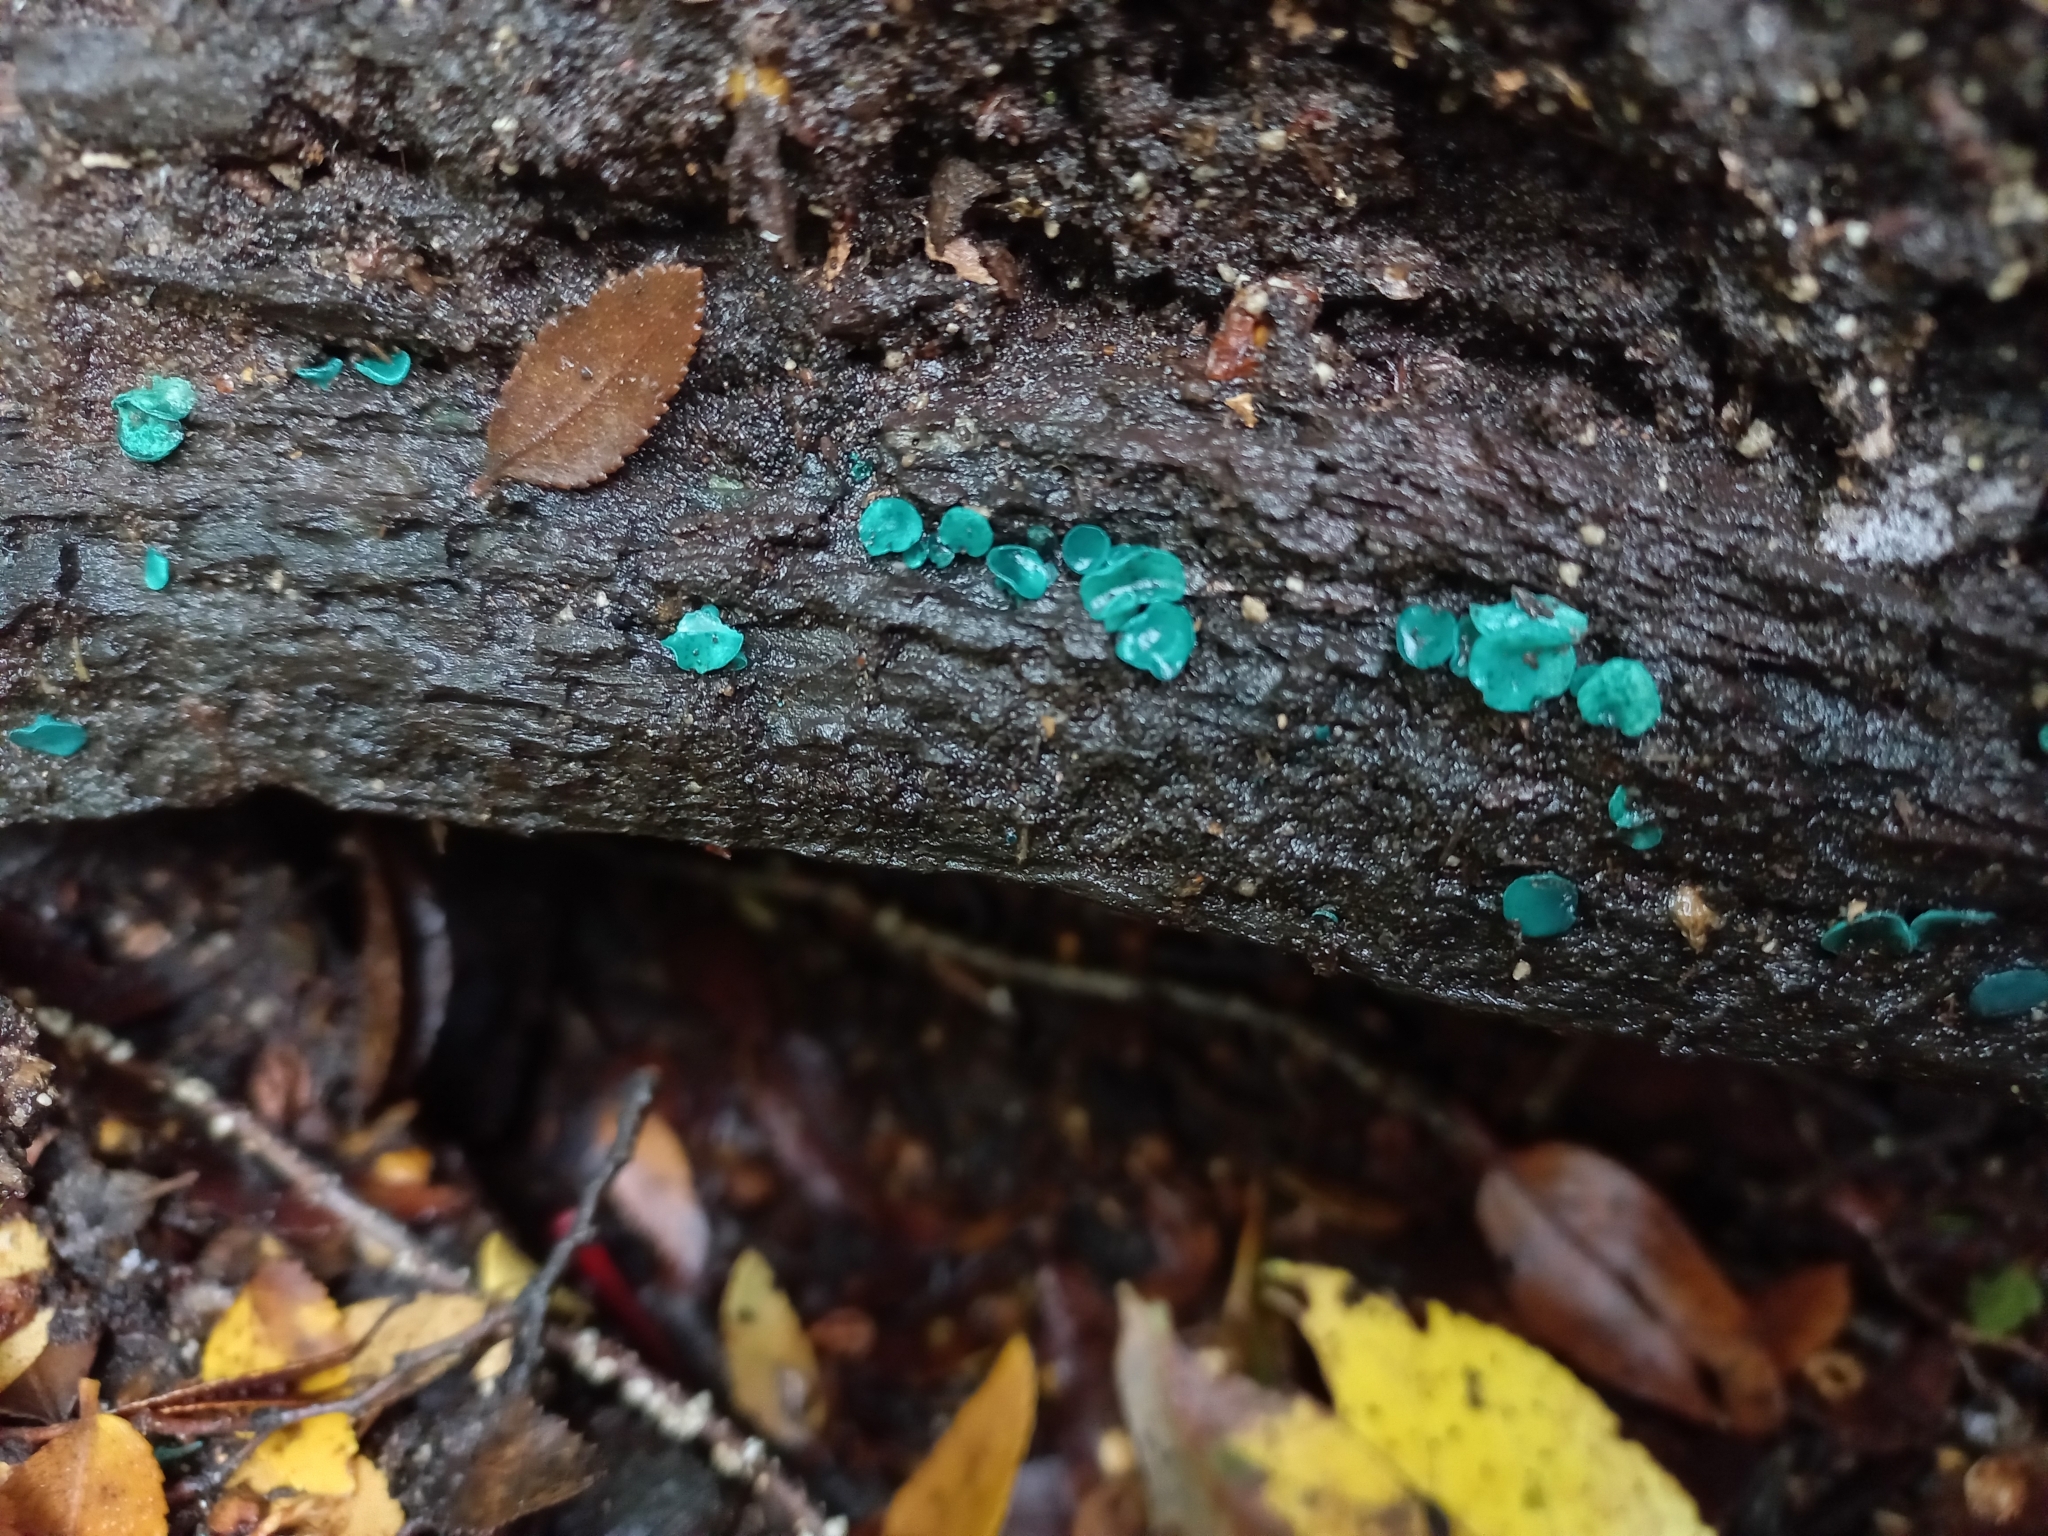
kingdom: Fungi
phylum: Ascomycota
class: Leotiomycetes
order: Helotiales
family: Chlorociboriaceae
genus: Chlorociboria
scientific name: Chlorociboria aeruginosa
